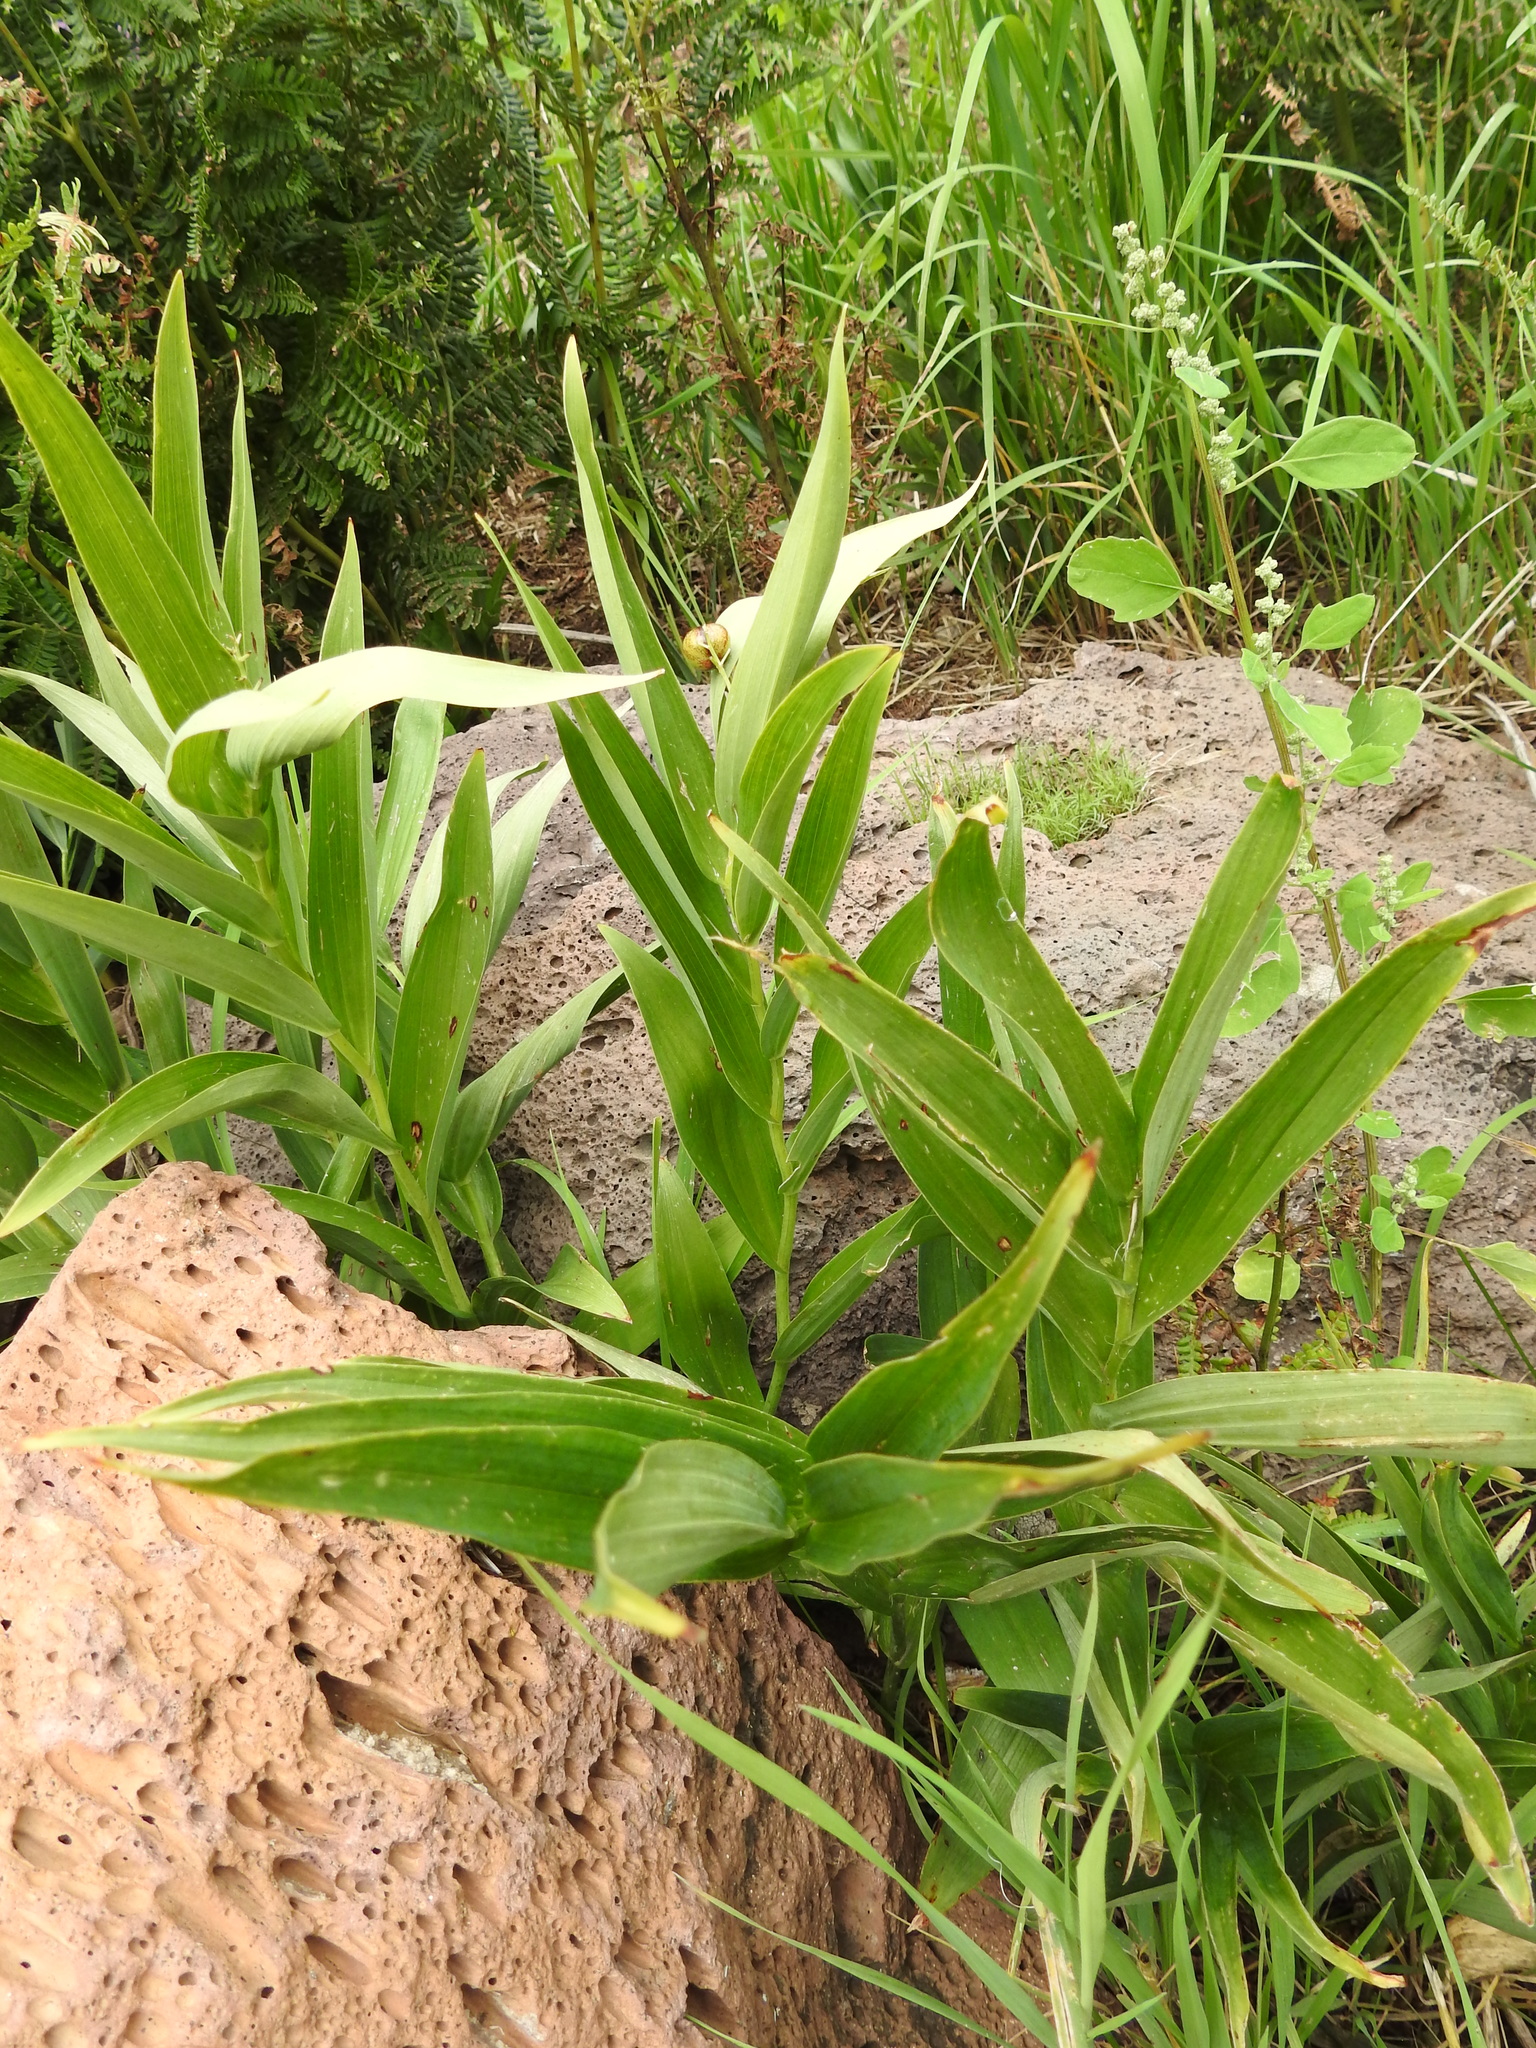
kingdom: Plantae
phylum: Tracheophyta
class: Liliopsida
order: Asparagales
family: Asparagaceae
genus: Maianthemum
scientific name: Maianthemum stellatum
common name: Little false solomon's seal
